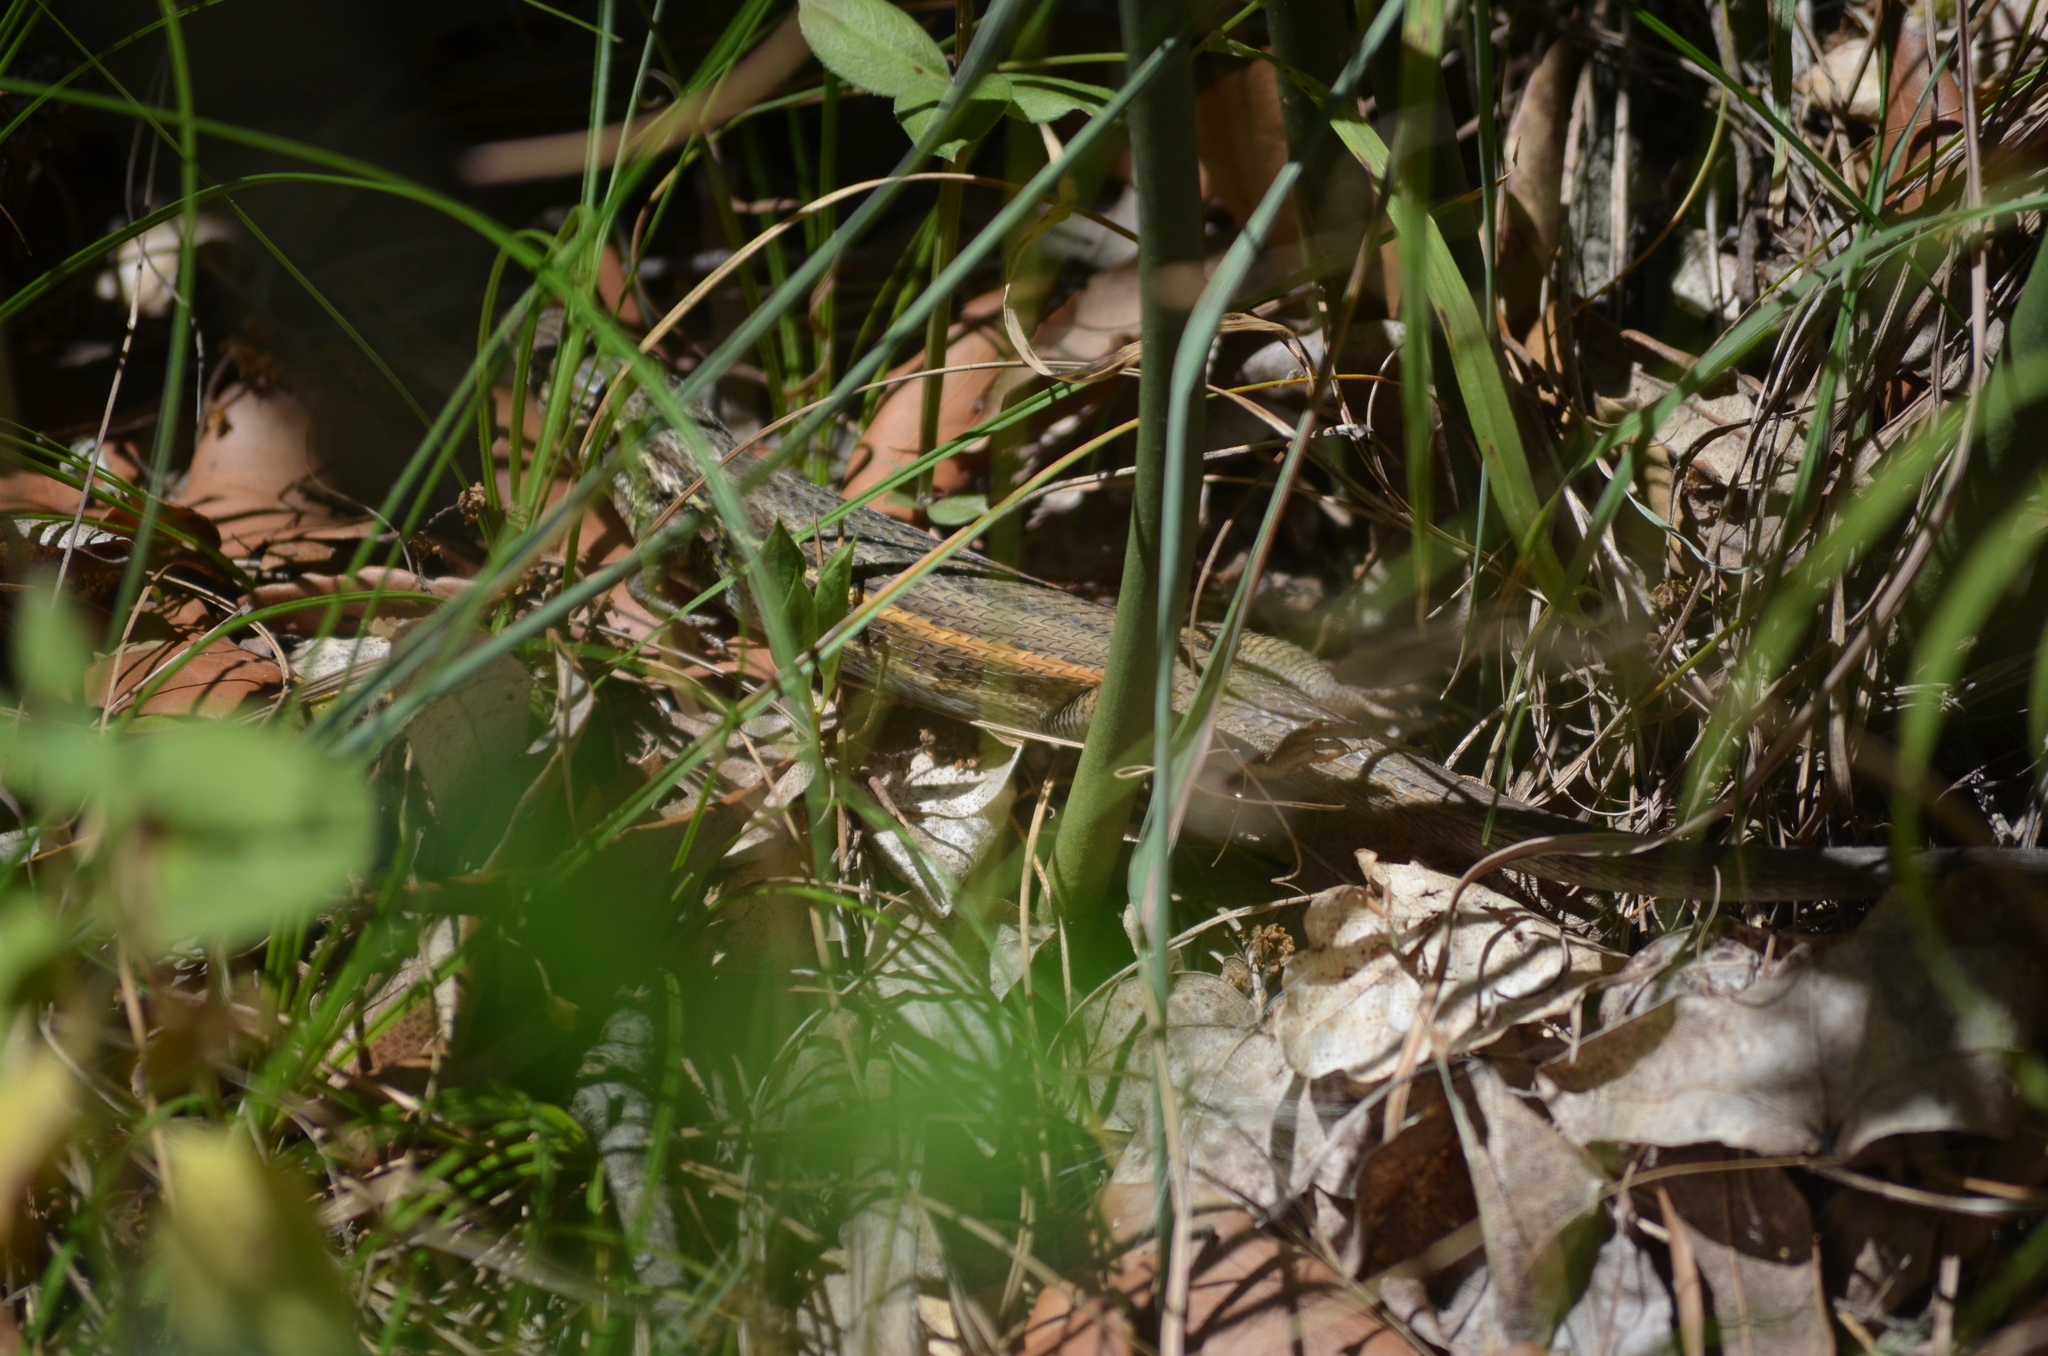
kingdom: Animalia
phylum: Chordata
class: Squamata
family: Lacertidae
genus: Psammodromus
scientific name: Psammodromus algirus
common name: Algerian psammodromus
